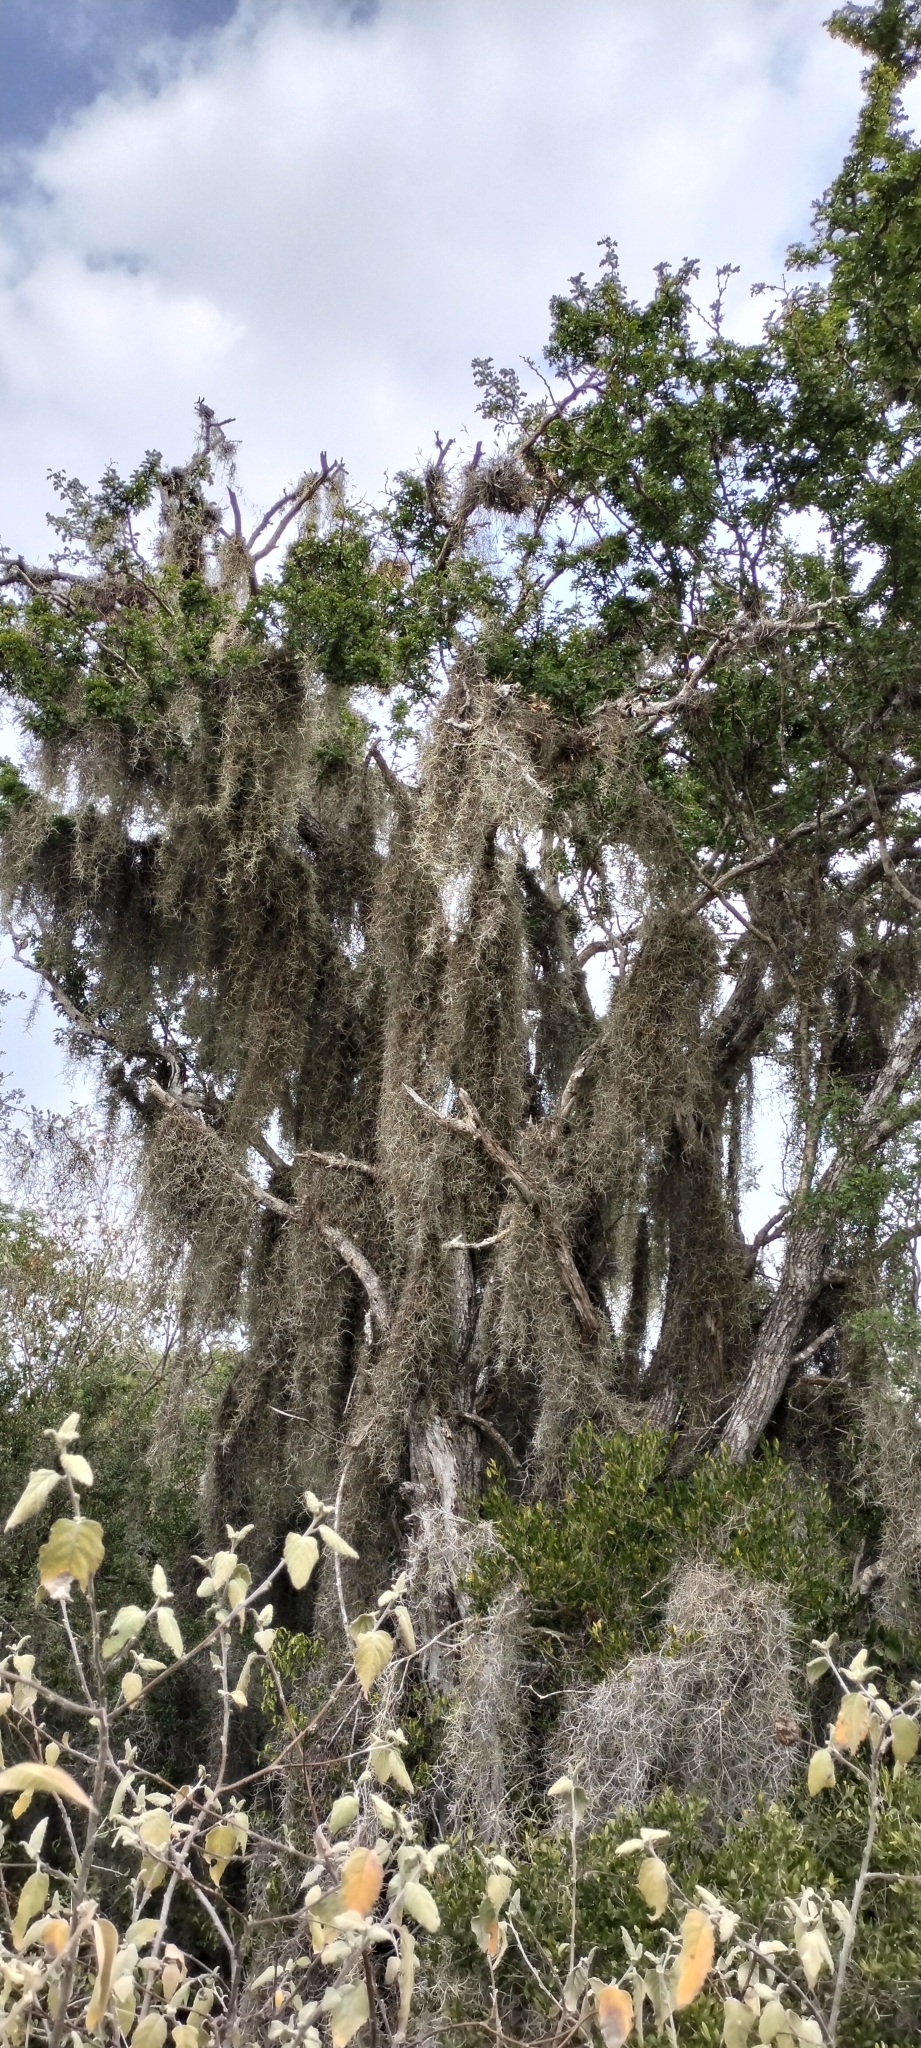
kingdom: Plantae
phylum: Tracheophyta
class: Liliopsida
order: Poales
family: Bromeliaceae
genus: Tillandsia
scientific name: Tillandsia usneoides
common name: Spanish moss
